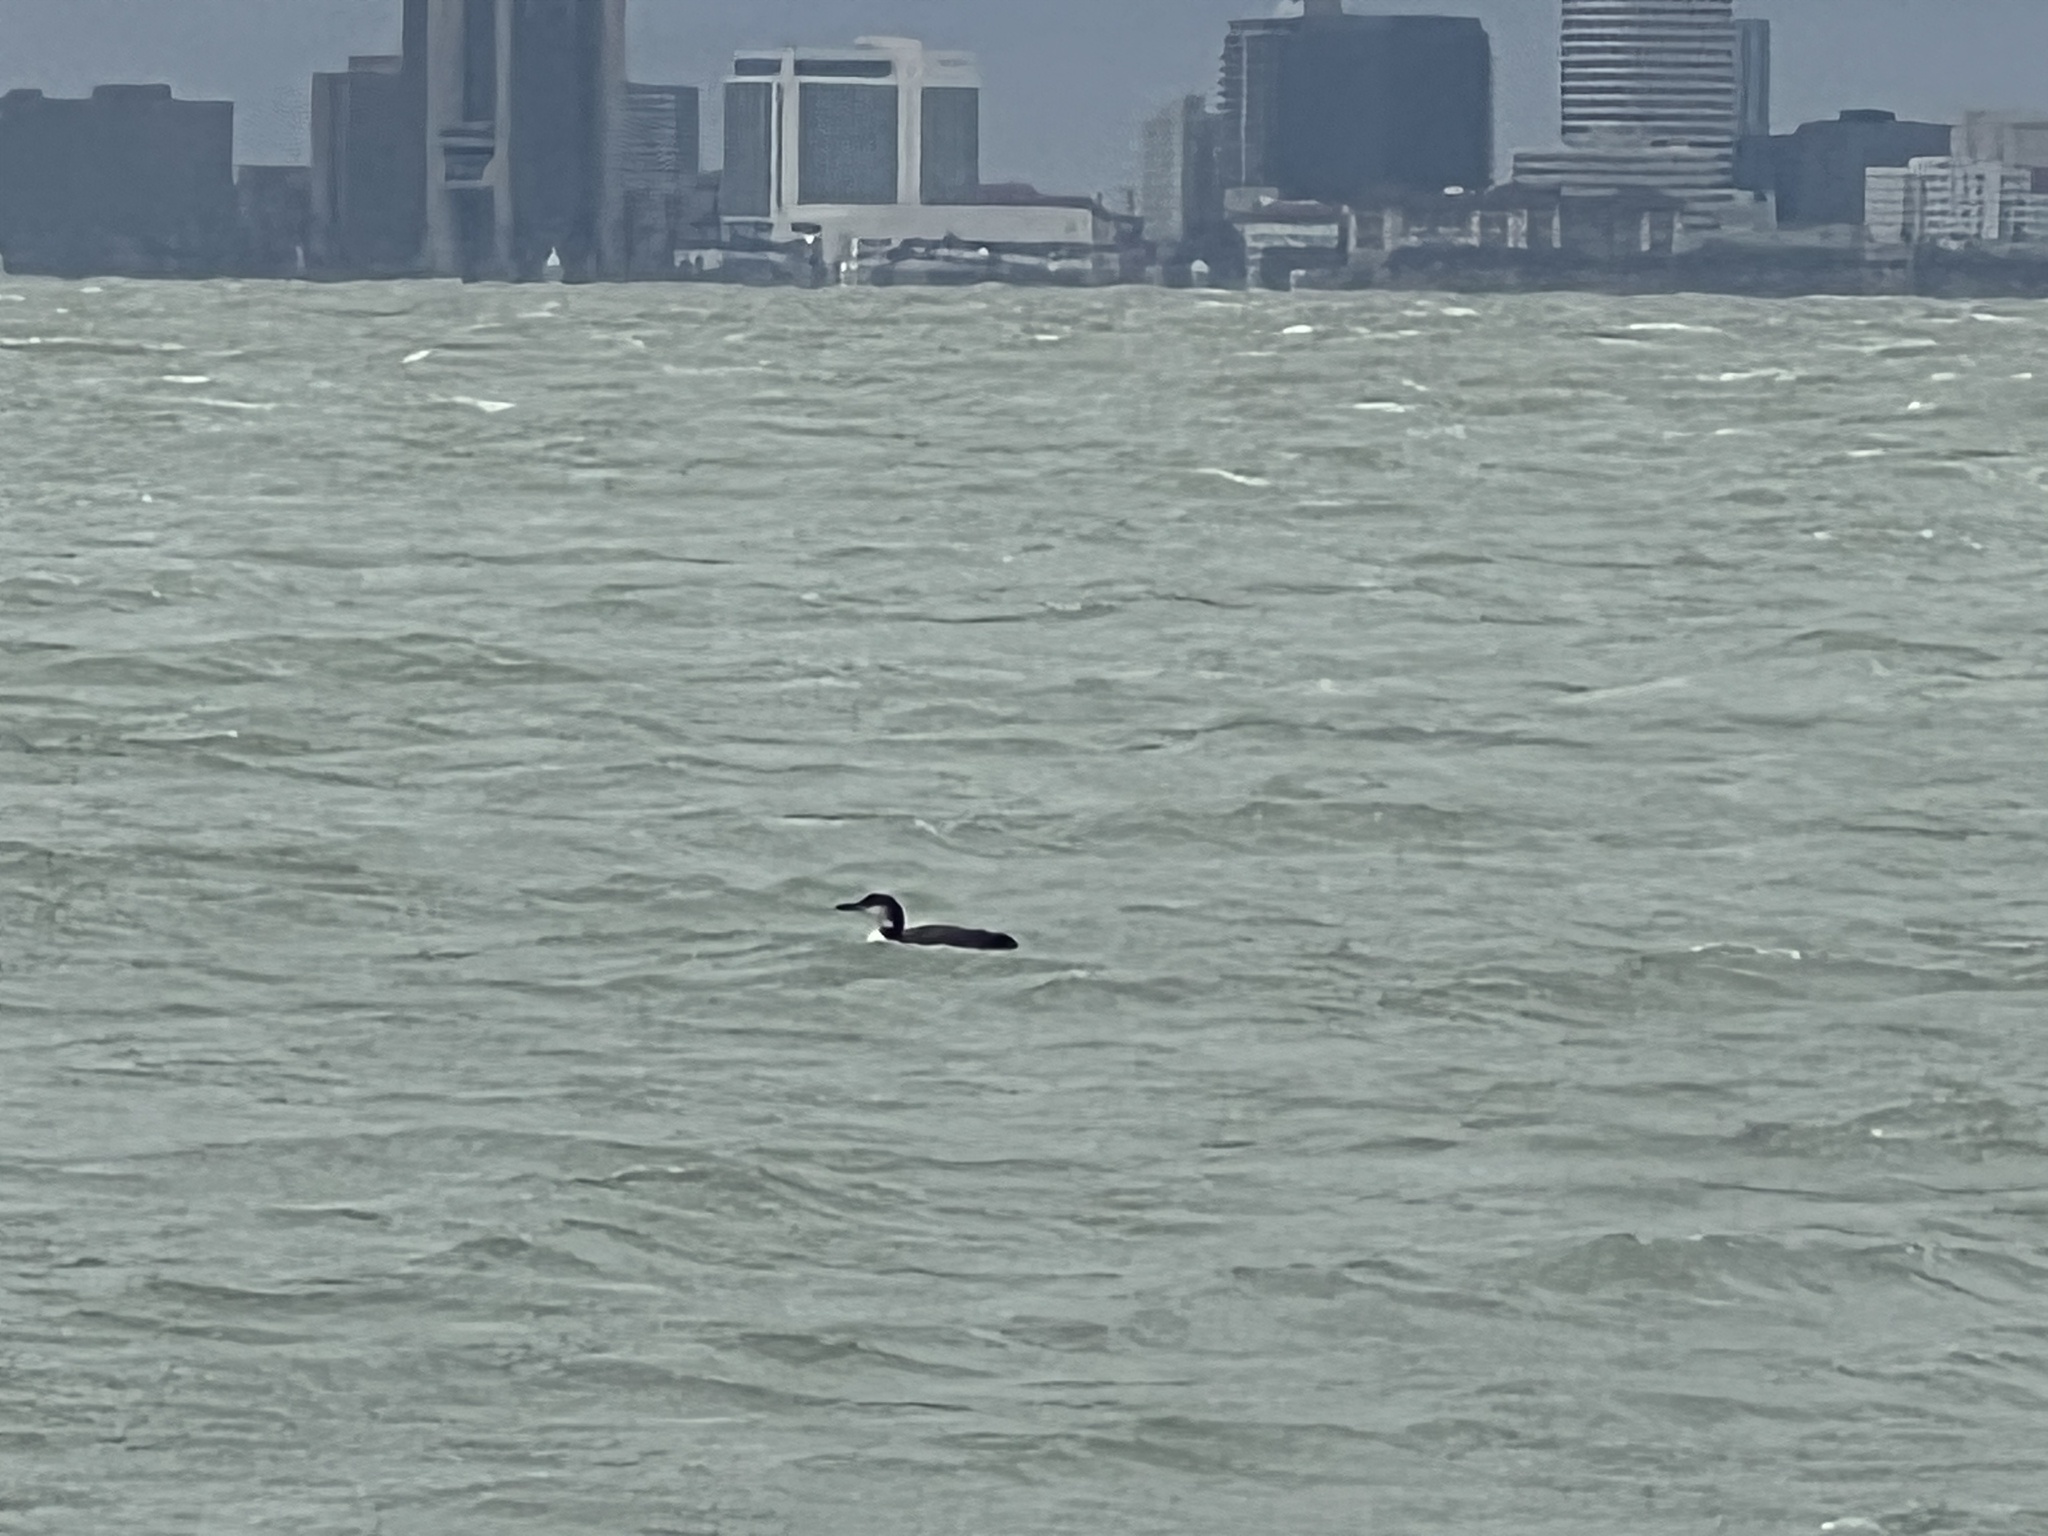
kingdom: Animalia
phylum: Chordata
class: Aves
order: Gaviiformes
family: Gaviidae
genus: Gavia
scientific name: Gavia immer
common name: Common loon
